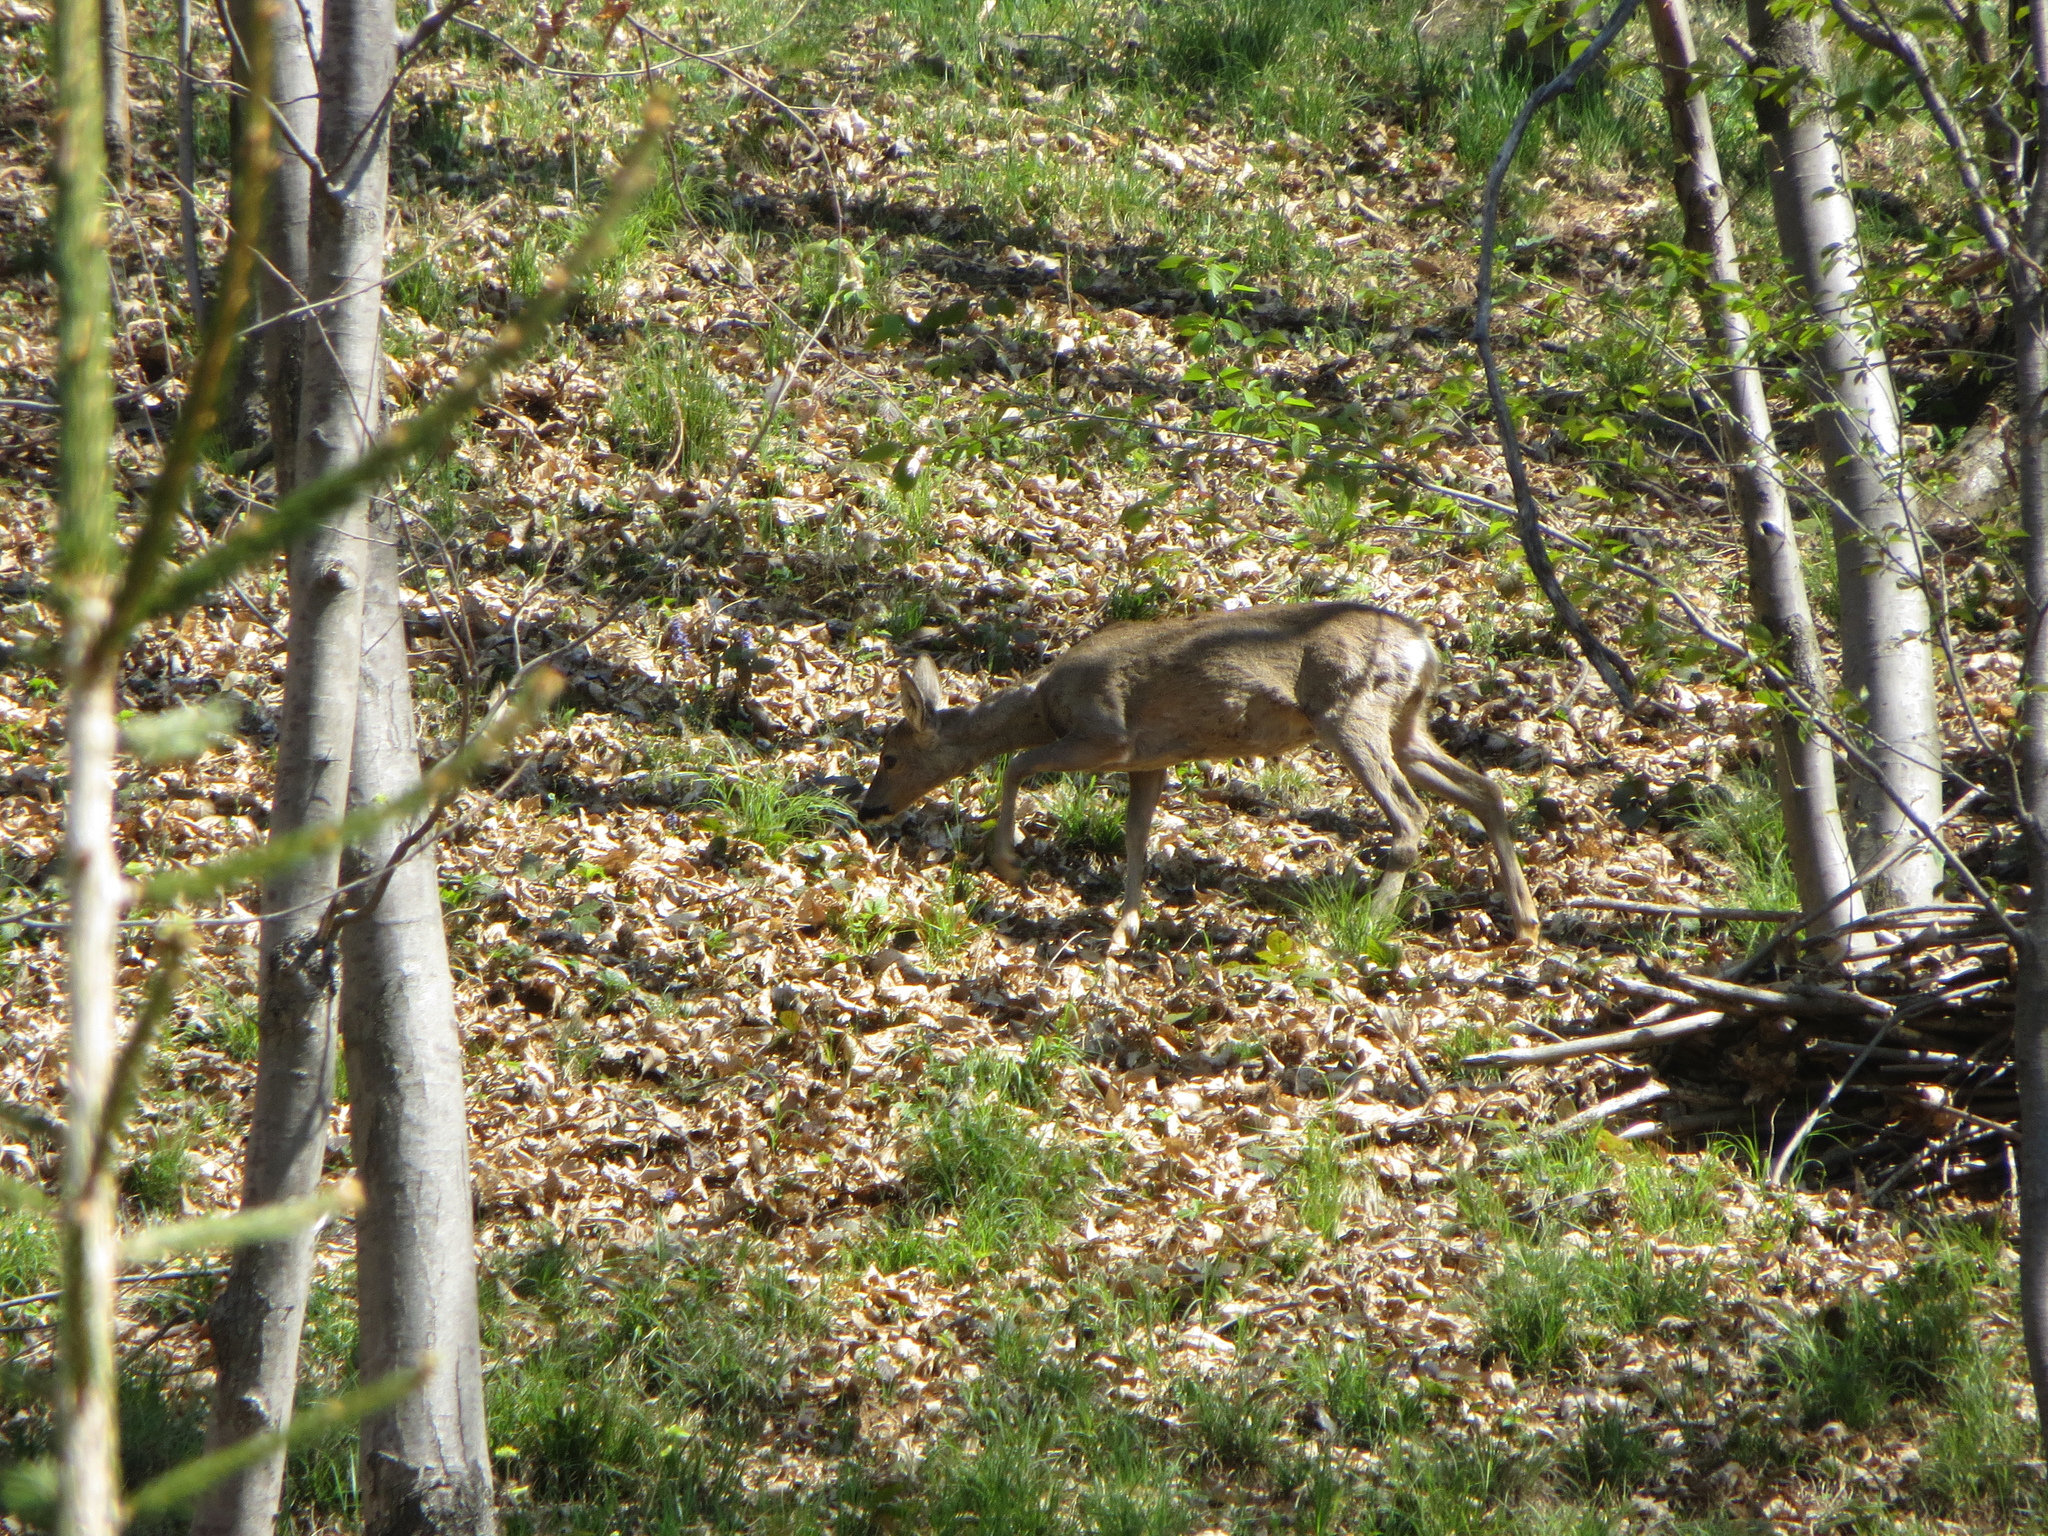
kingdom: Animalia
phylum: Chordata
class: Mammalia
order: Artiodactyla
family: Cervidae
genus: Capreolus
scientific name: Capreolus capreolus
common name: Western roe deer
